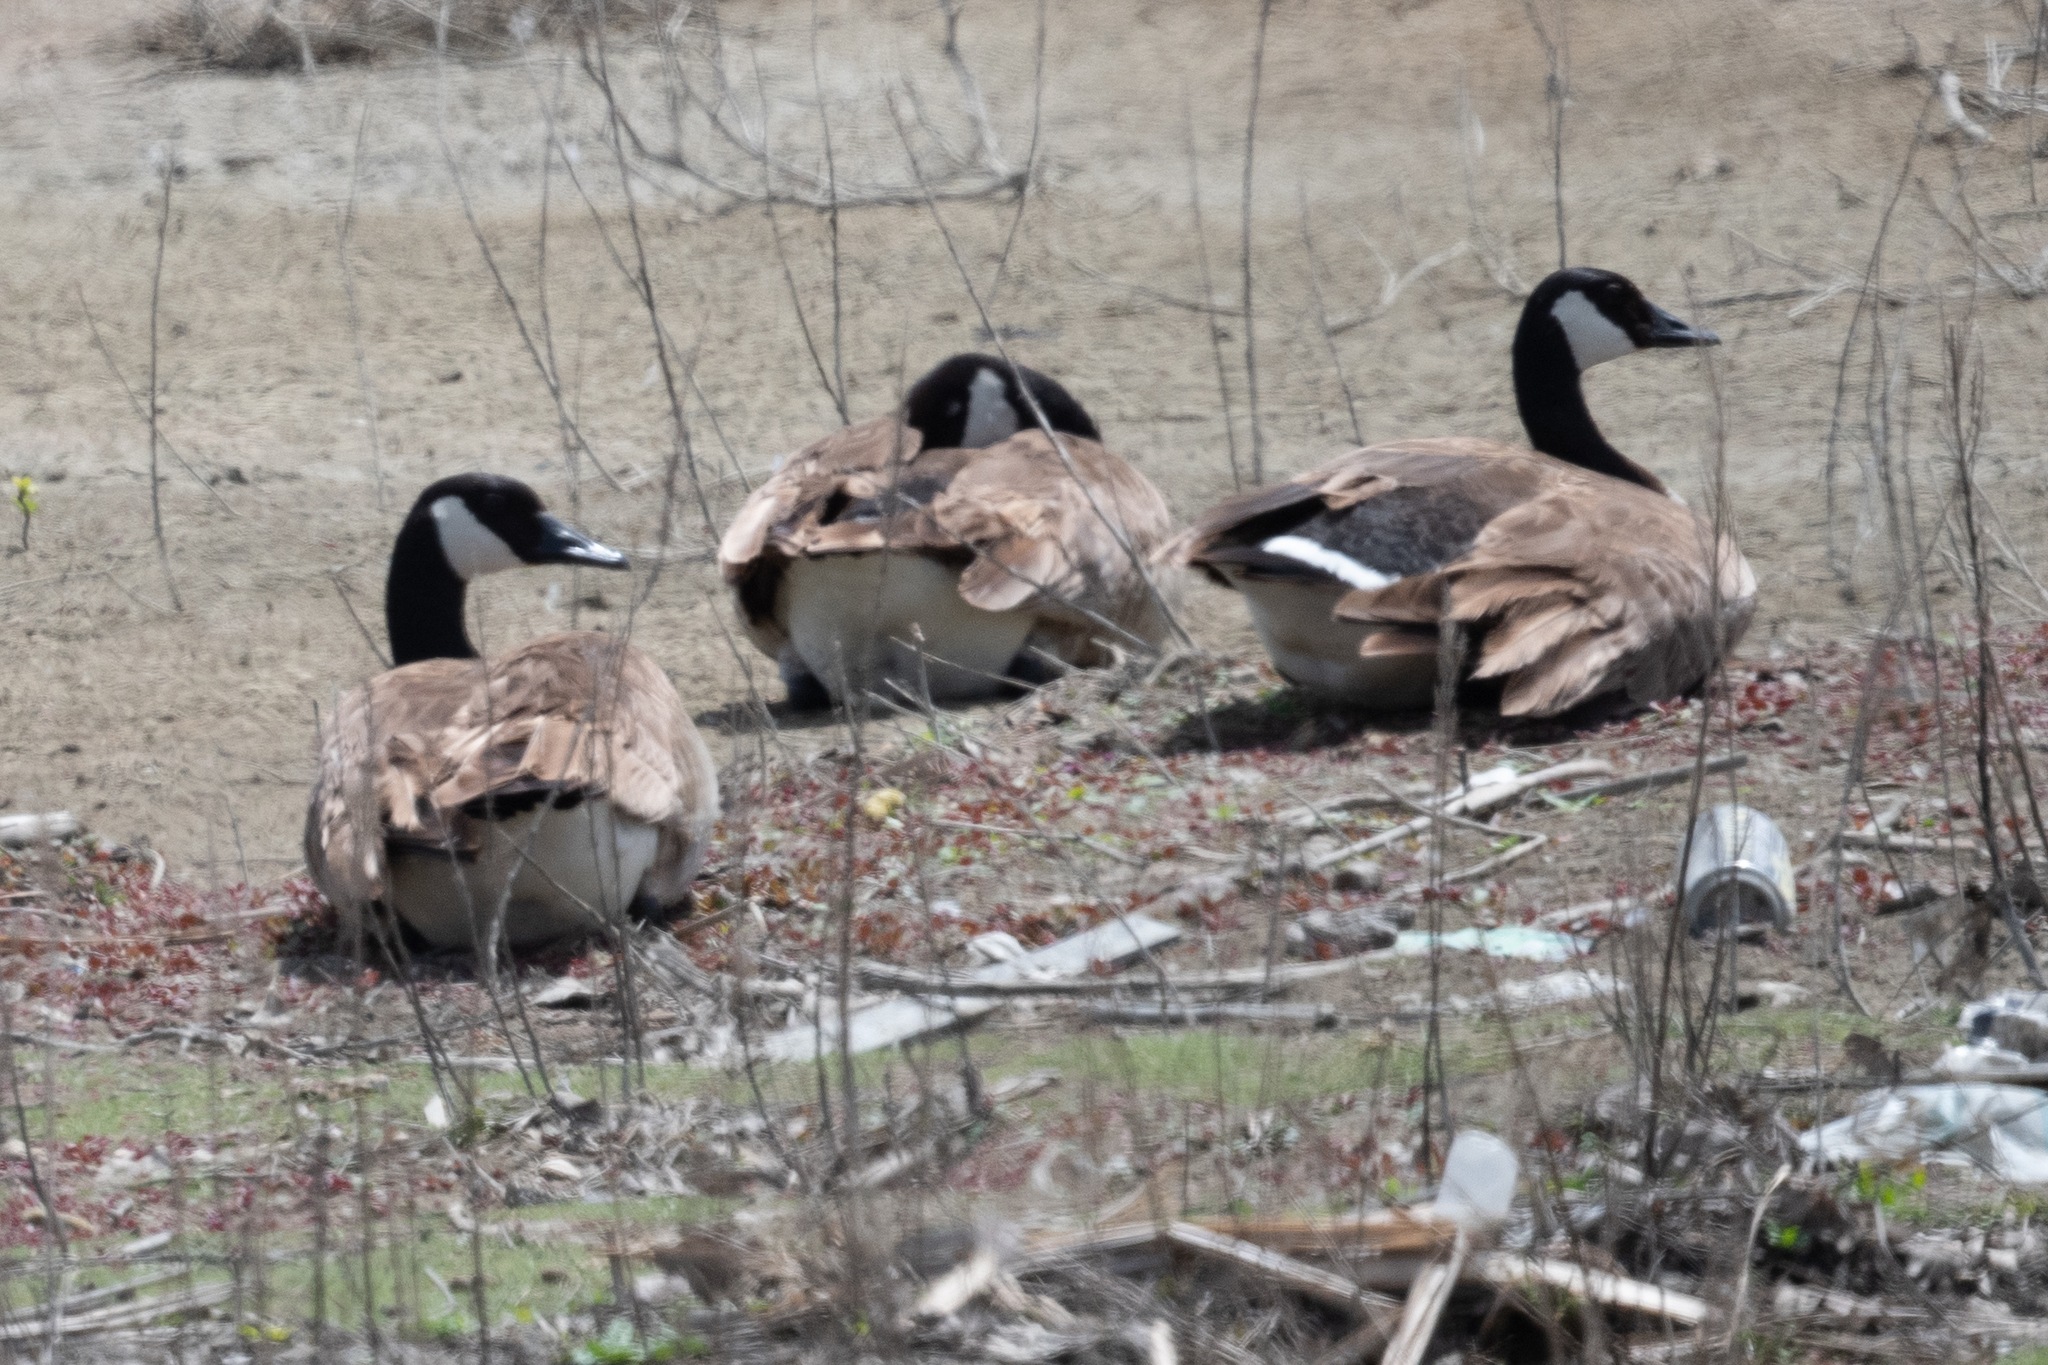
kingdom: Animalia
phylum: Chordata
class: Aves
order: Anseriformes
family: Anatidae
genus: Branta
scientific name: Branta canadensis
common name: Canada goose
